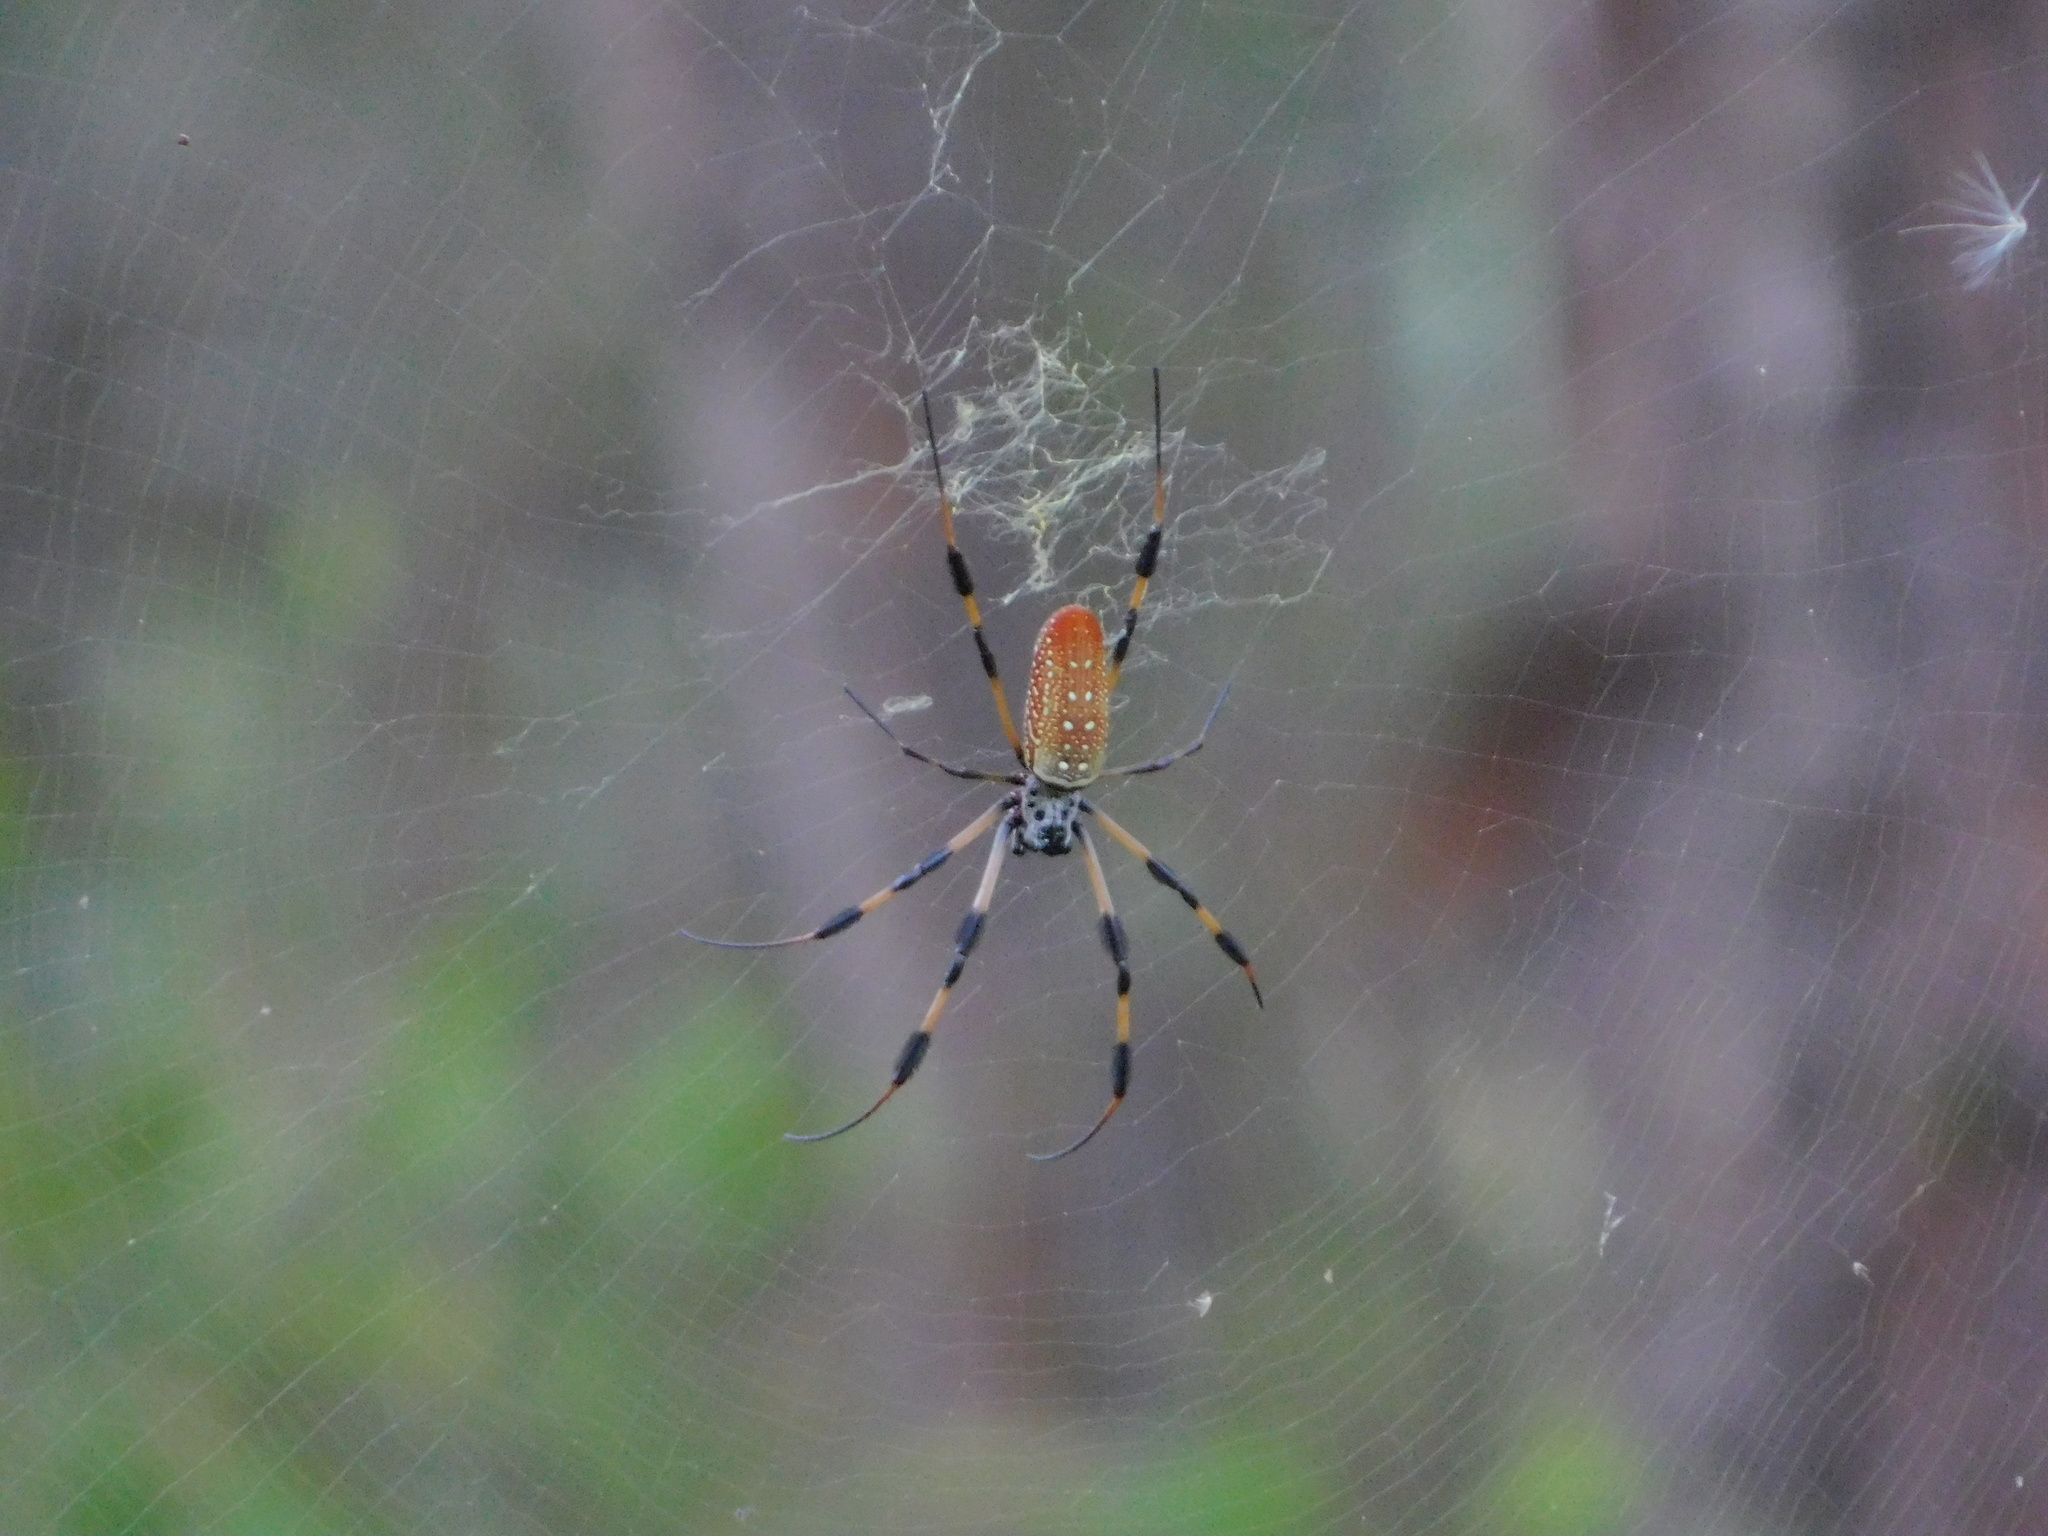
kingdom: Animalia
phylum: Arthropoda
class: Arachnida
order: Araneae
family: Araneidae
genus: Trichonephila
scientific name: Trichonephila clavipes
